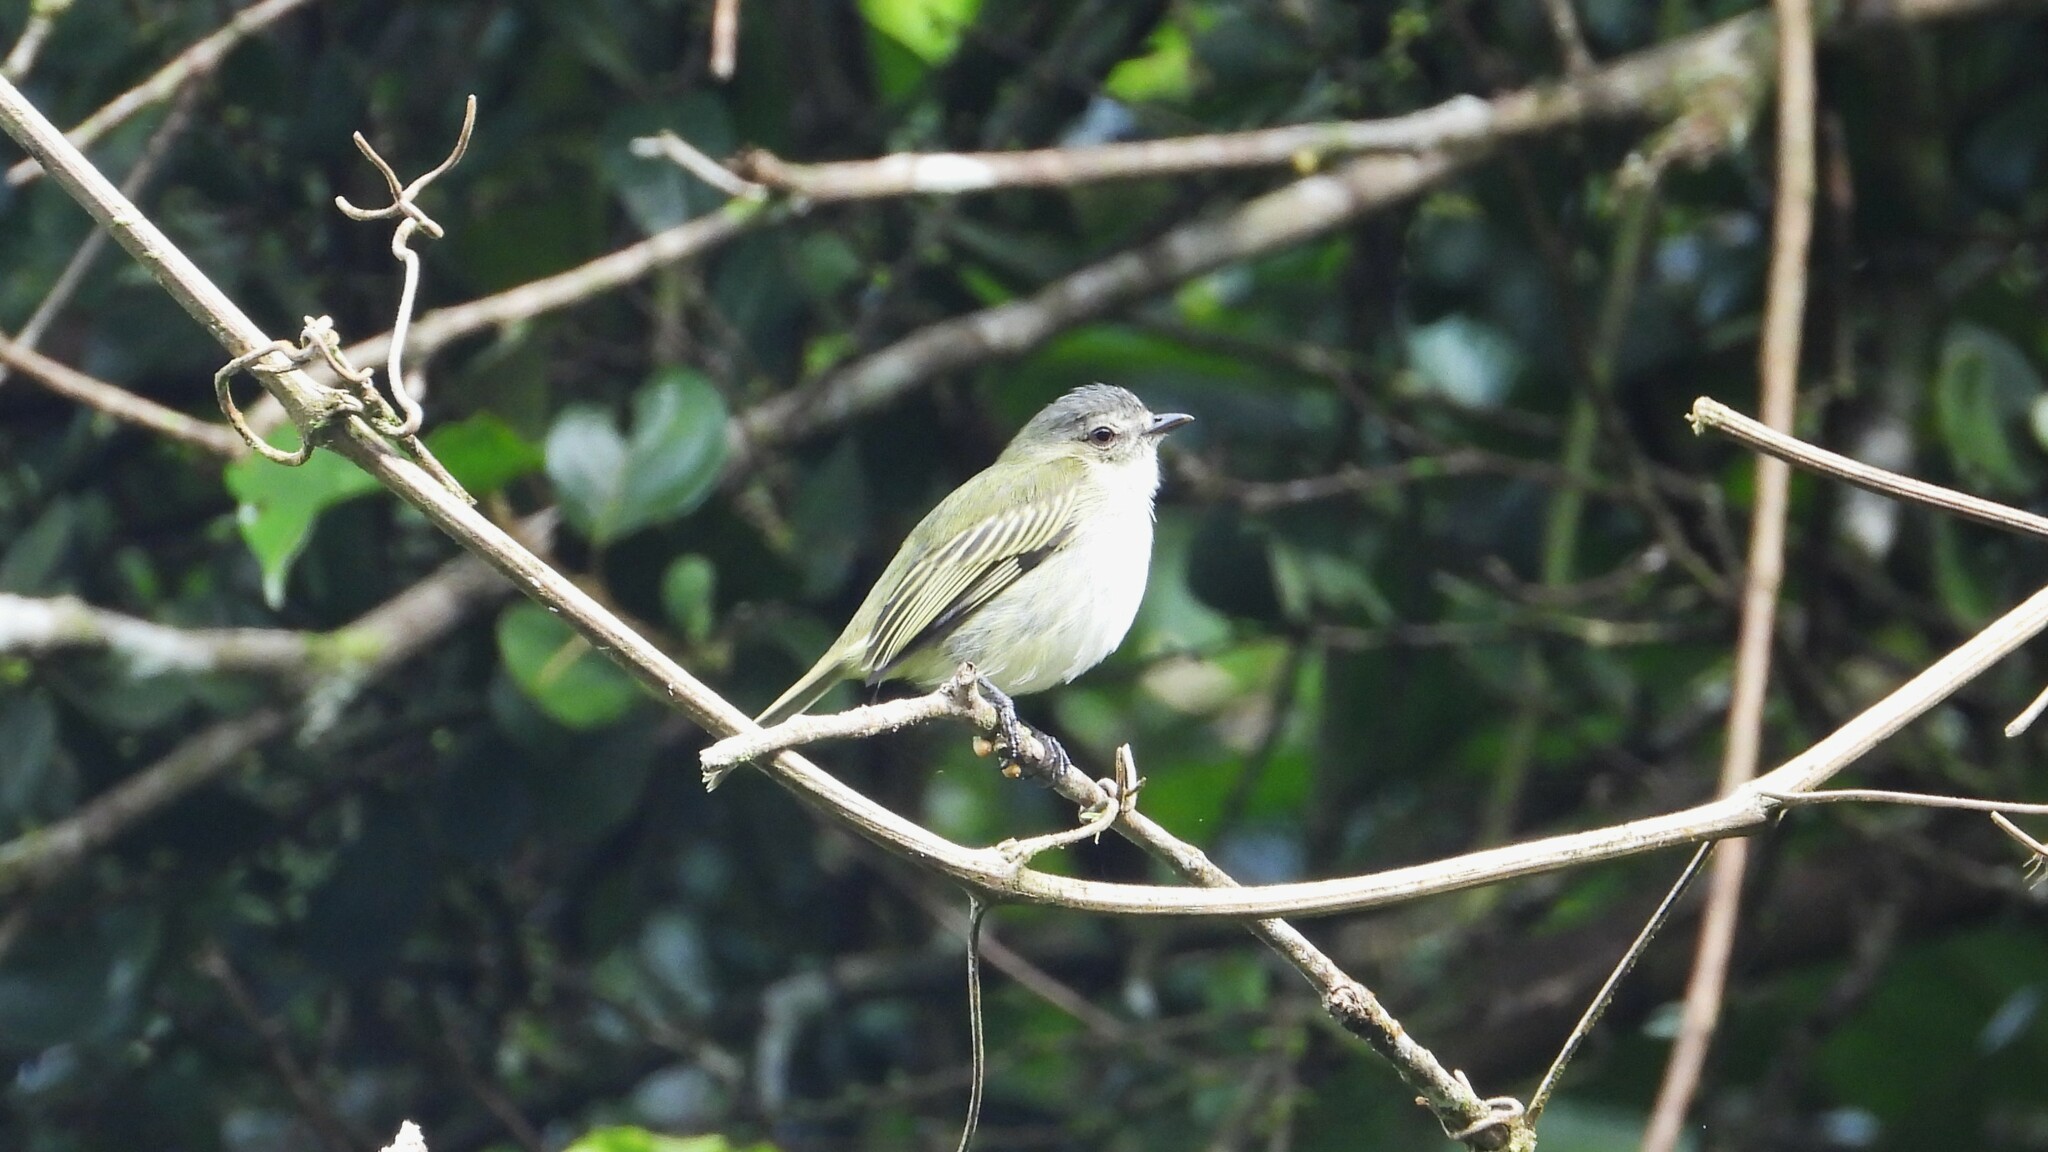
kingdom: Animalia
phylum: Chordata
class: Aves
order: Passeriformes
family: Tyrannidae
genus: Zimmerius
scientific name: Zimmerius vilissimus
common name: Paltry tyrannulet
